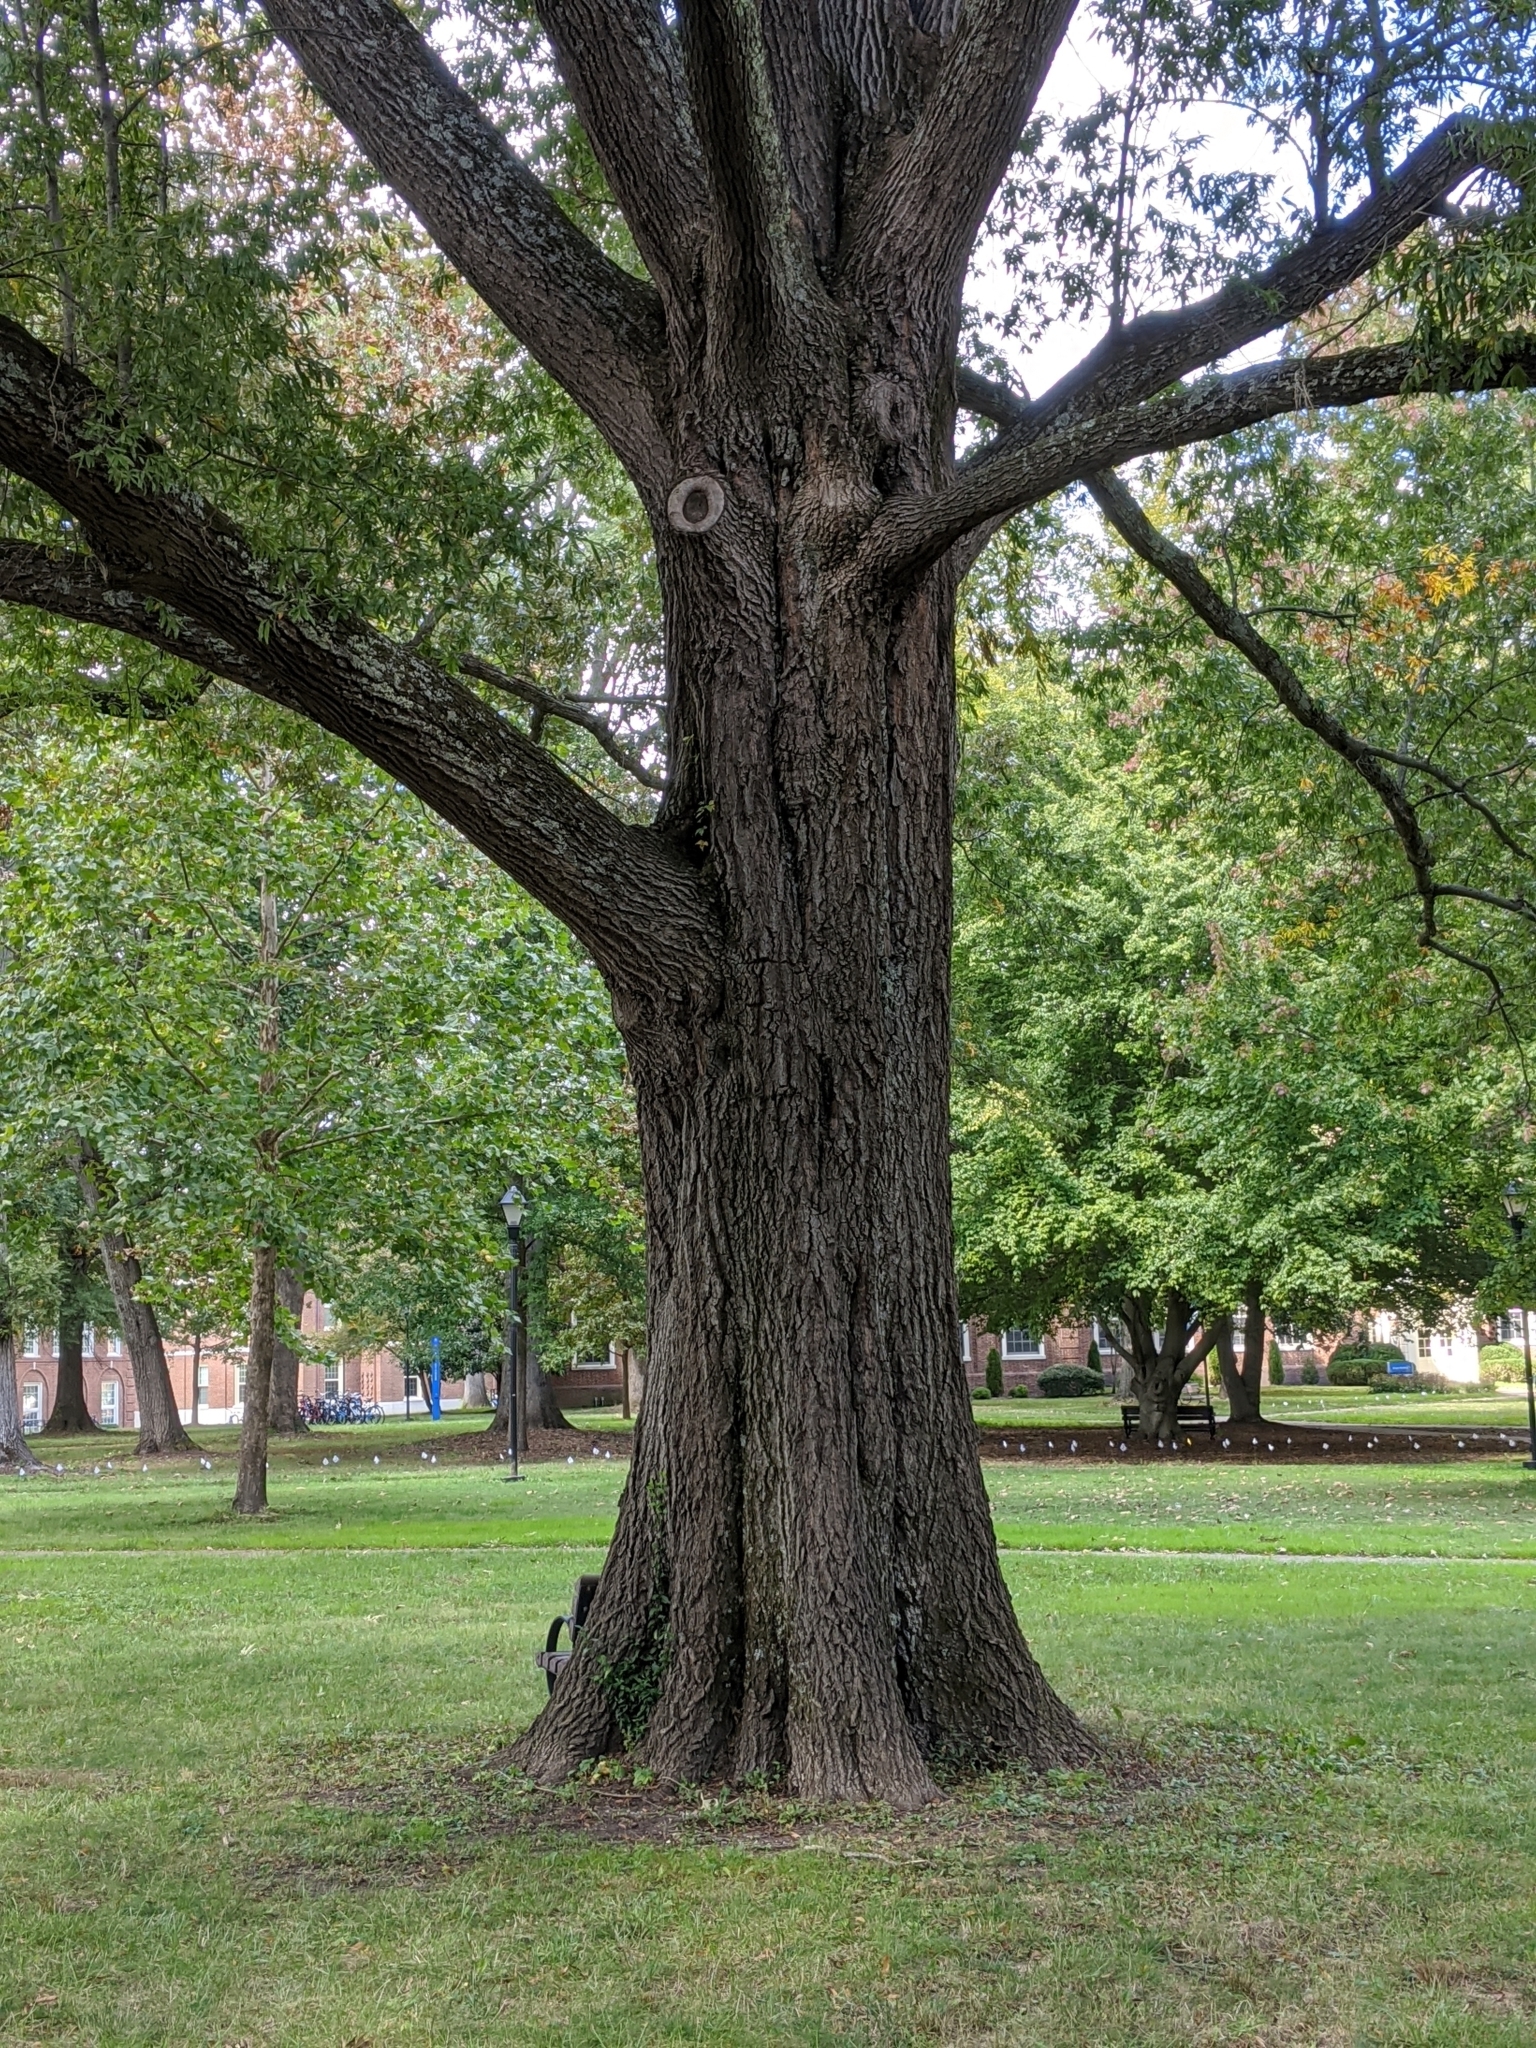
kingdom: Plantae
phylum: Tracheophyta
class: Magnoliopsida
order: Fagales
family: Fagaceae
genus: Quercus
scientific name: Quercus phellos
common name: Willow oak
